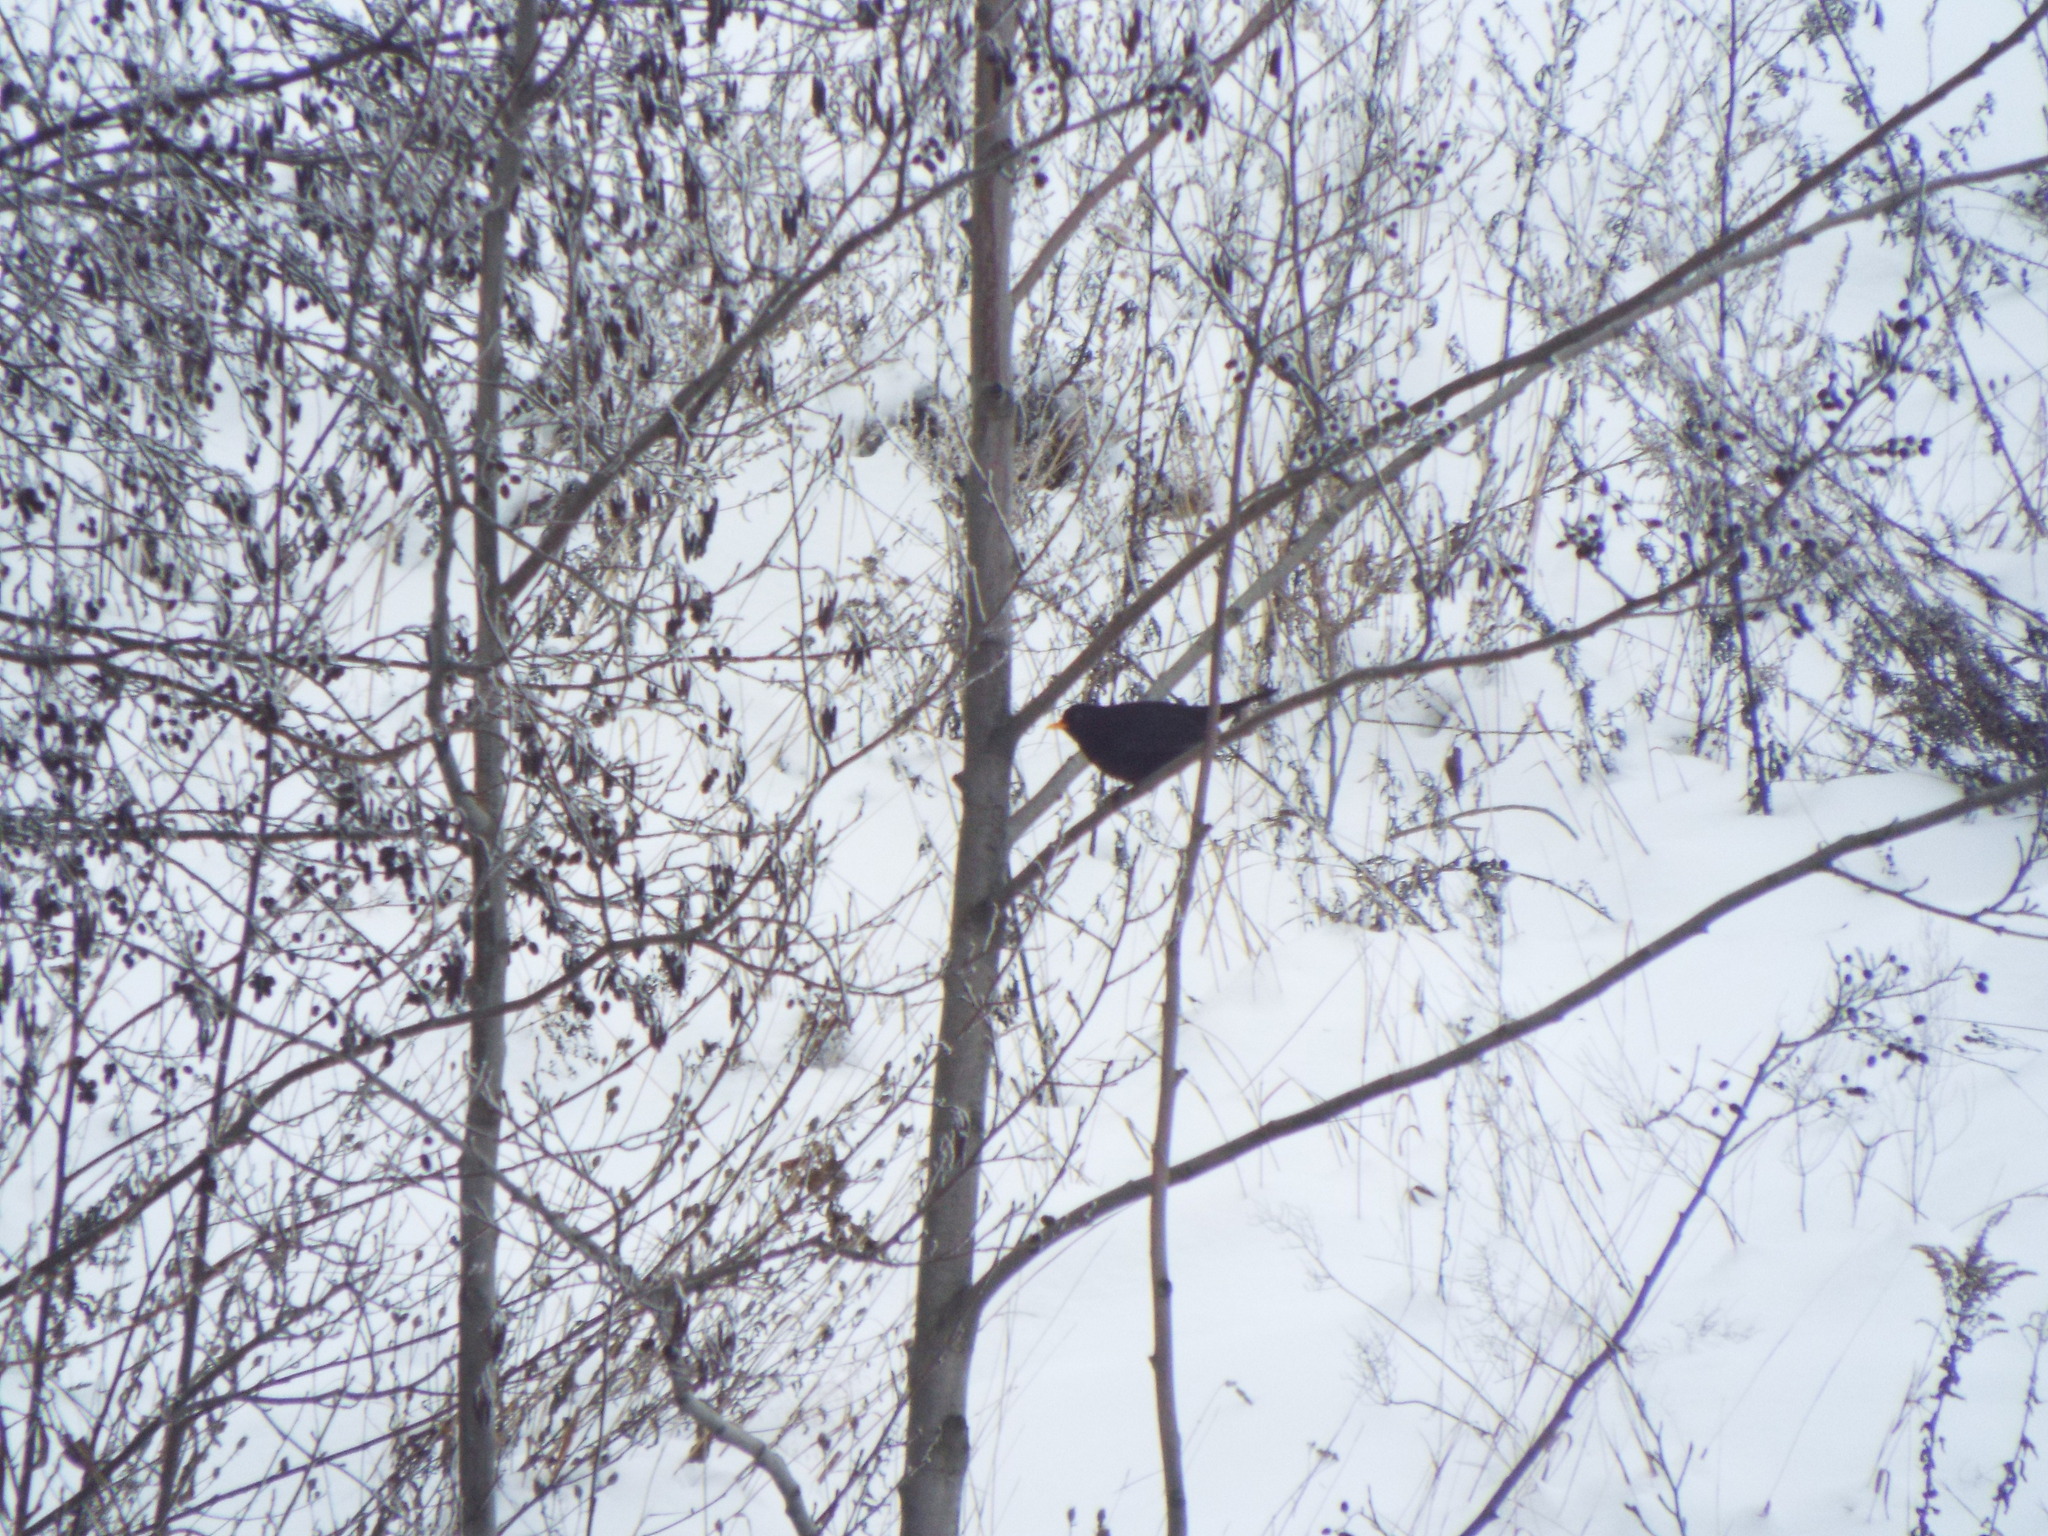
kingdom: Animalia
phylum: Chordata
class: Aves
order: Passeriformes
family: Turdidae
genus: Turdus
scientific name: Turdus merula
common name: Common blackbird
